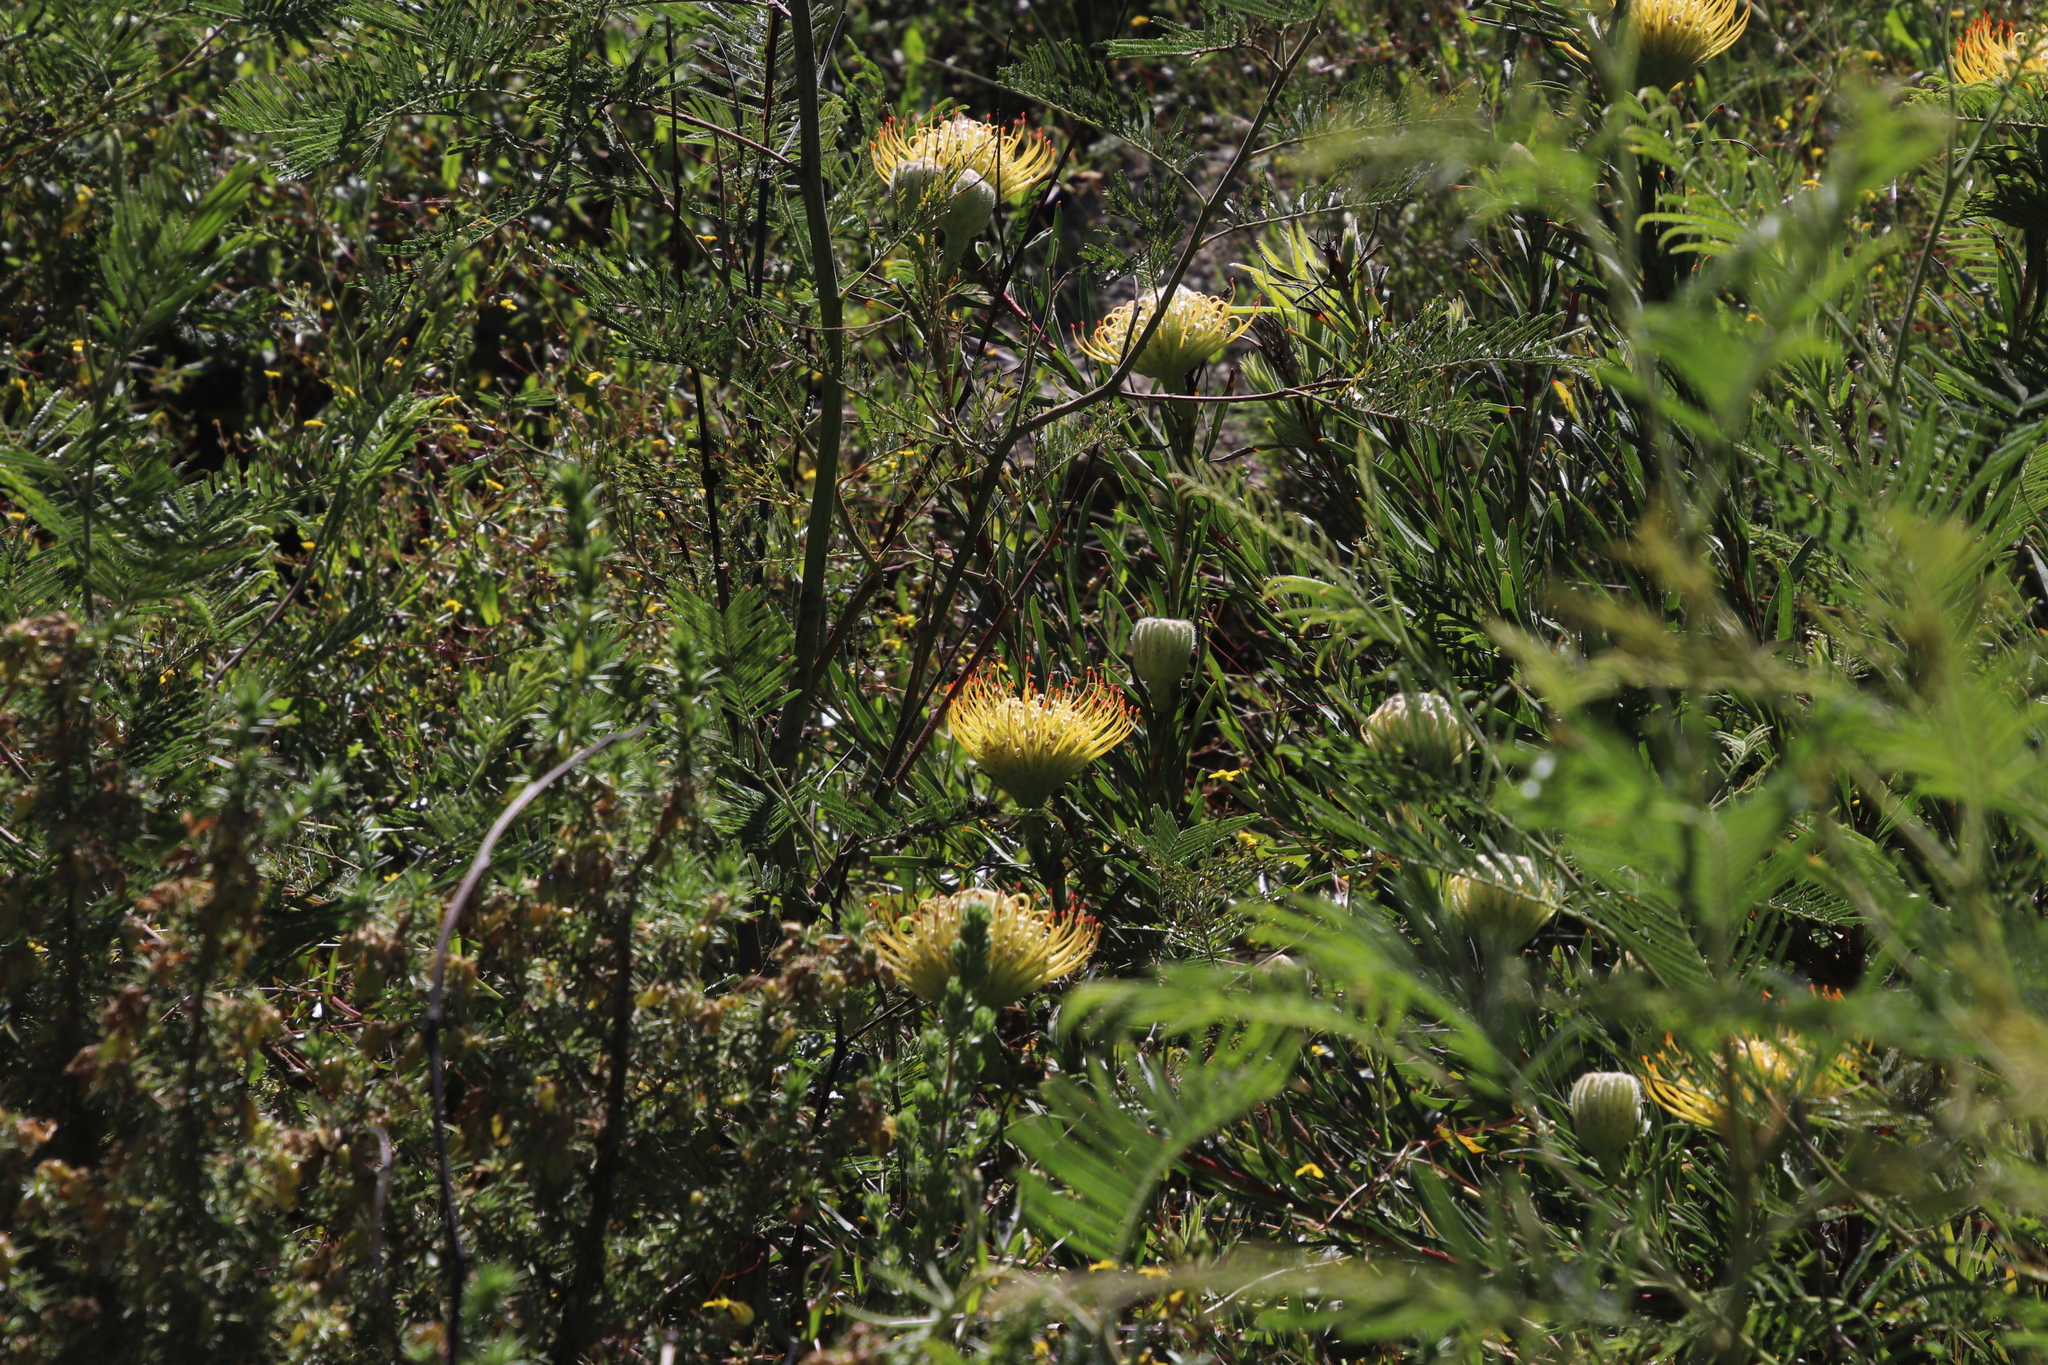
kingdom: Plantae
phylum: Tracheophyta
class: Magnoliopsida
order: Proteales
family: Proteaceae
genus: Leucospermum
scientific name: Leucospermum lineare
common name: Needle-leaf pincushion
